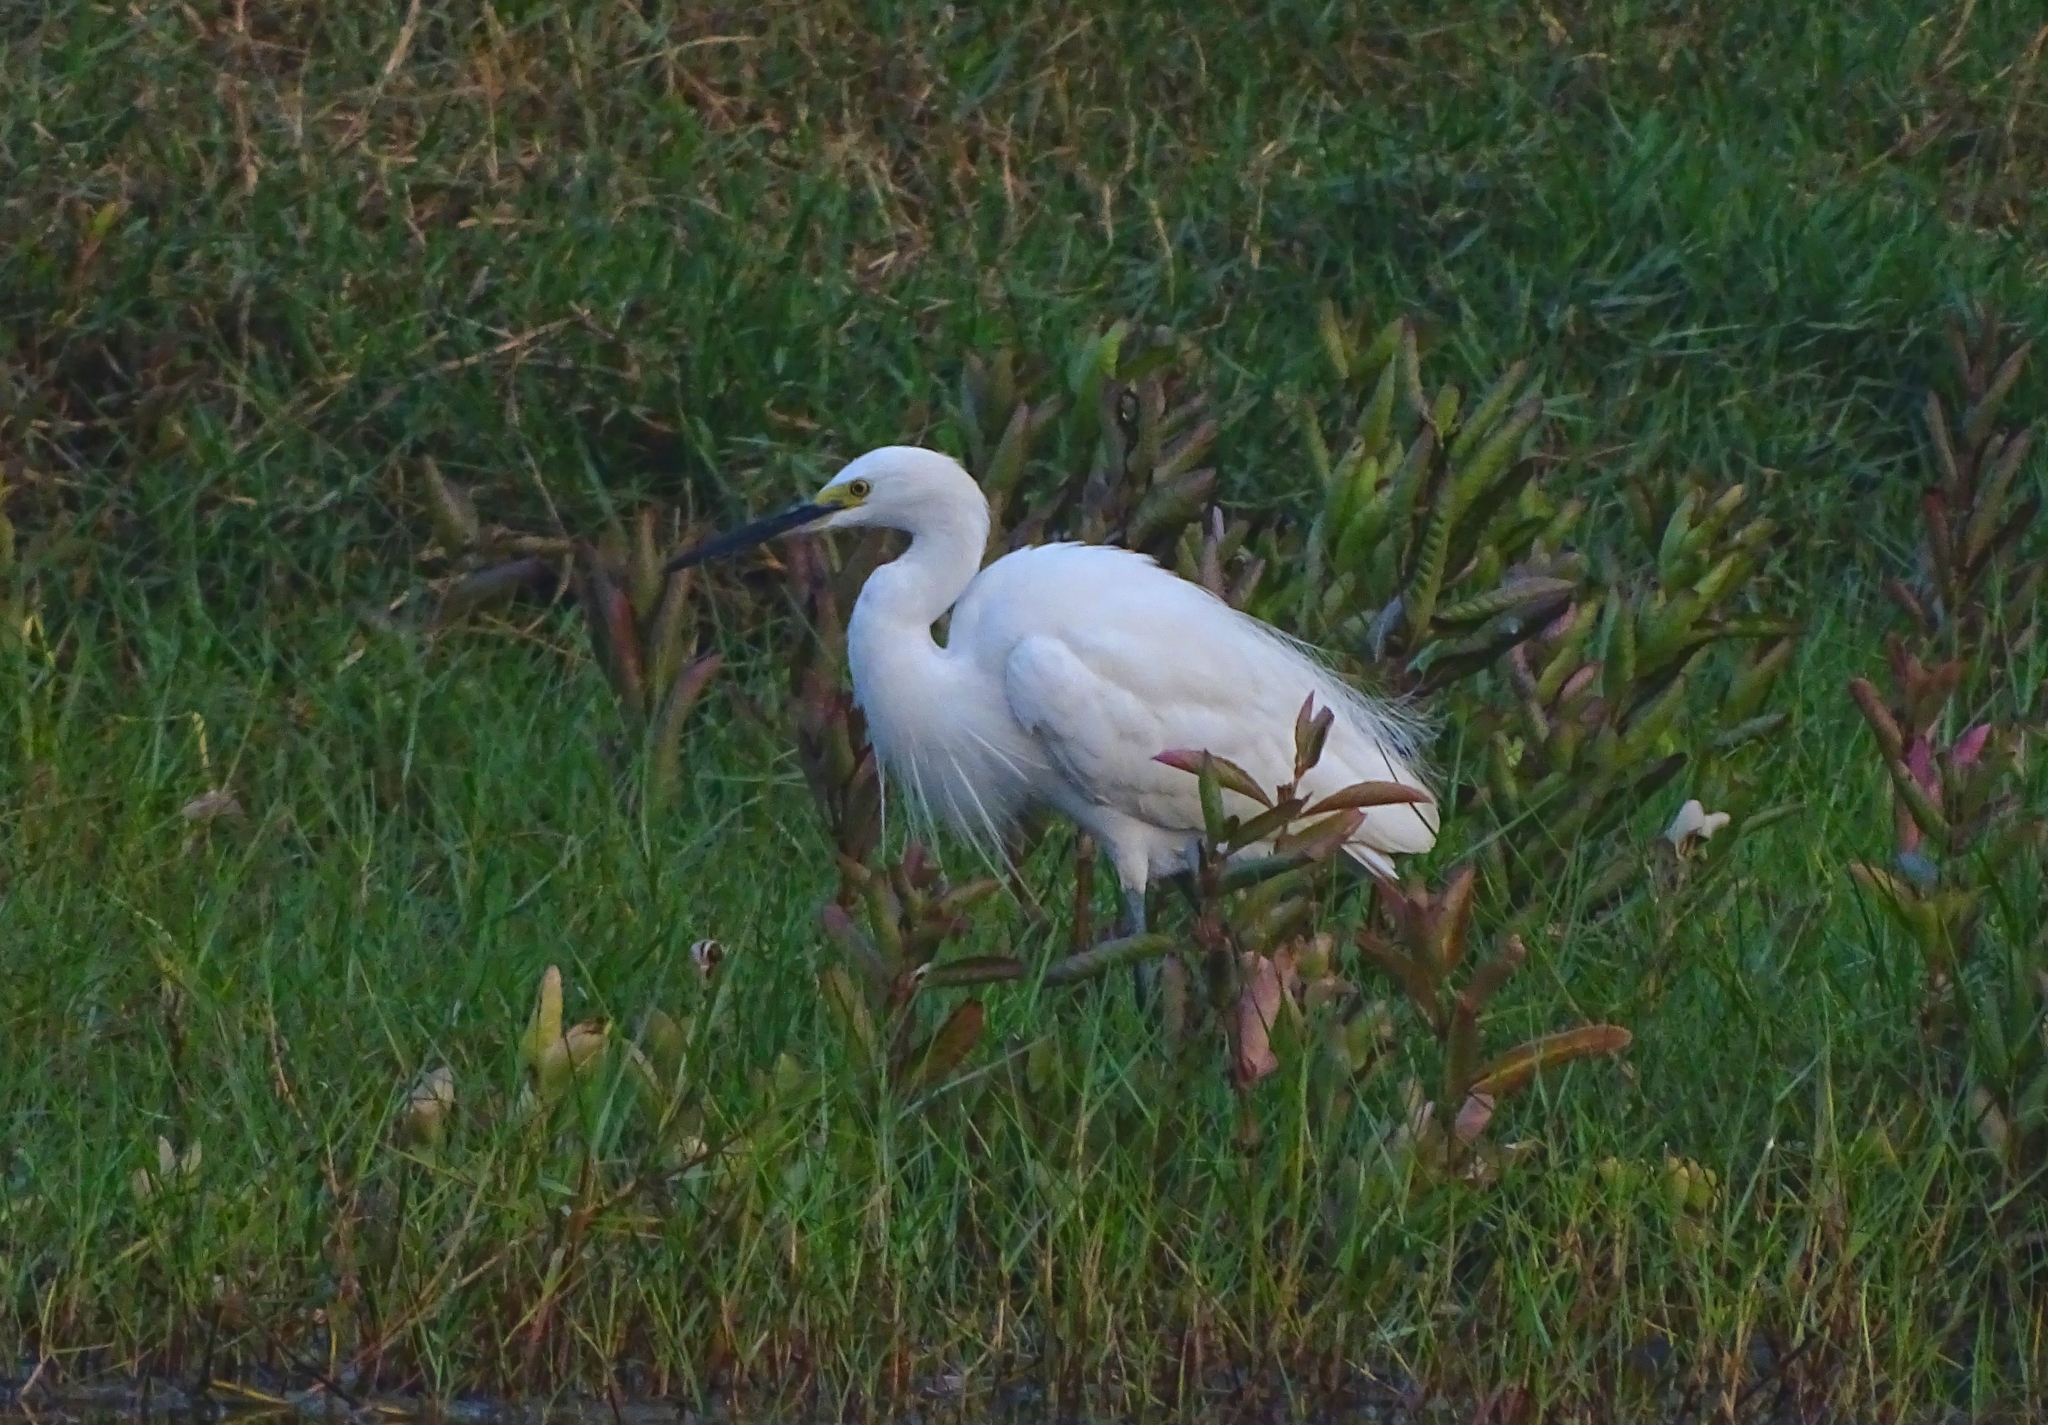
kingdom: Animalia
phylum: Chordata
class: Aves
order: Pelecaniformes
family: Ardeidae
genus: Egretta
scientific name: Egretta garzetta
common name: Little egret
